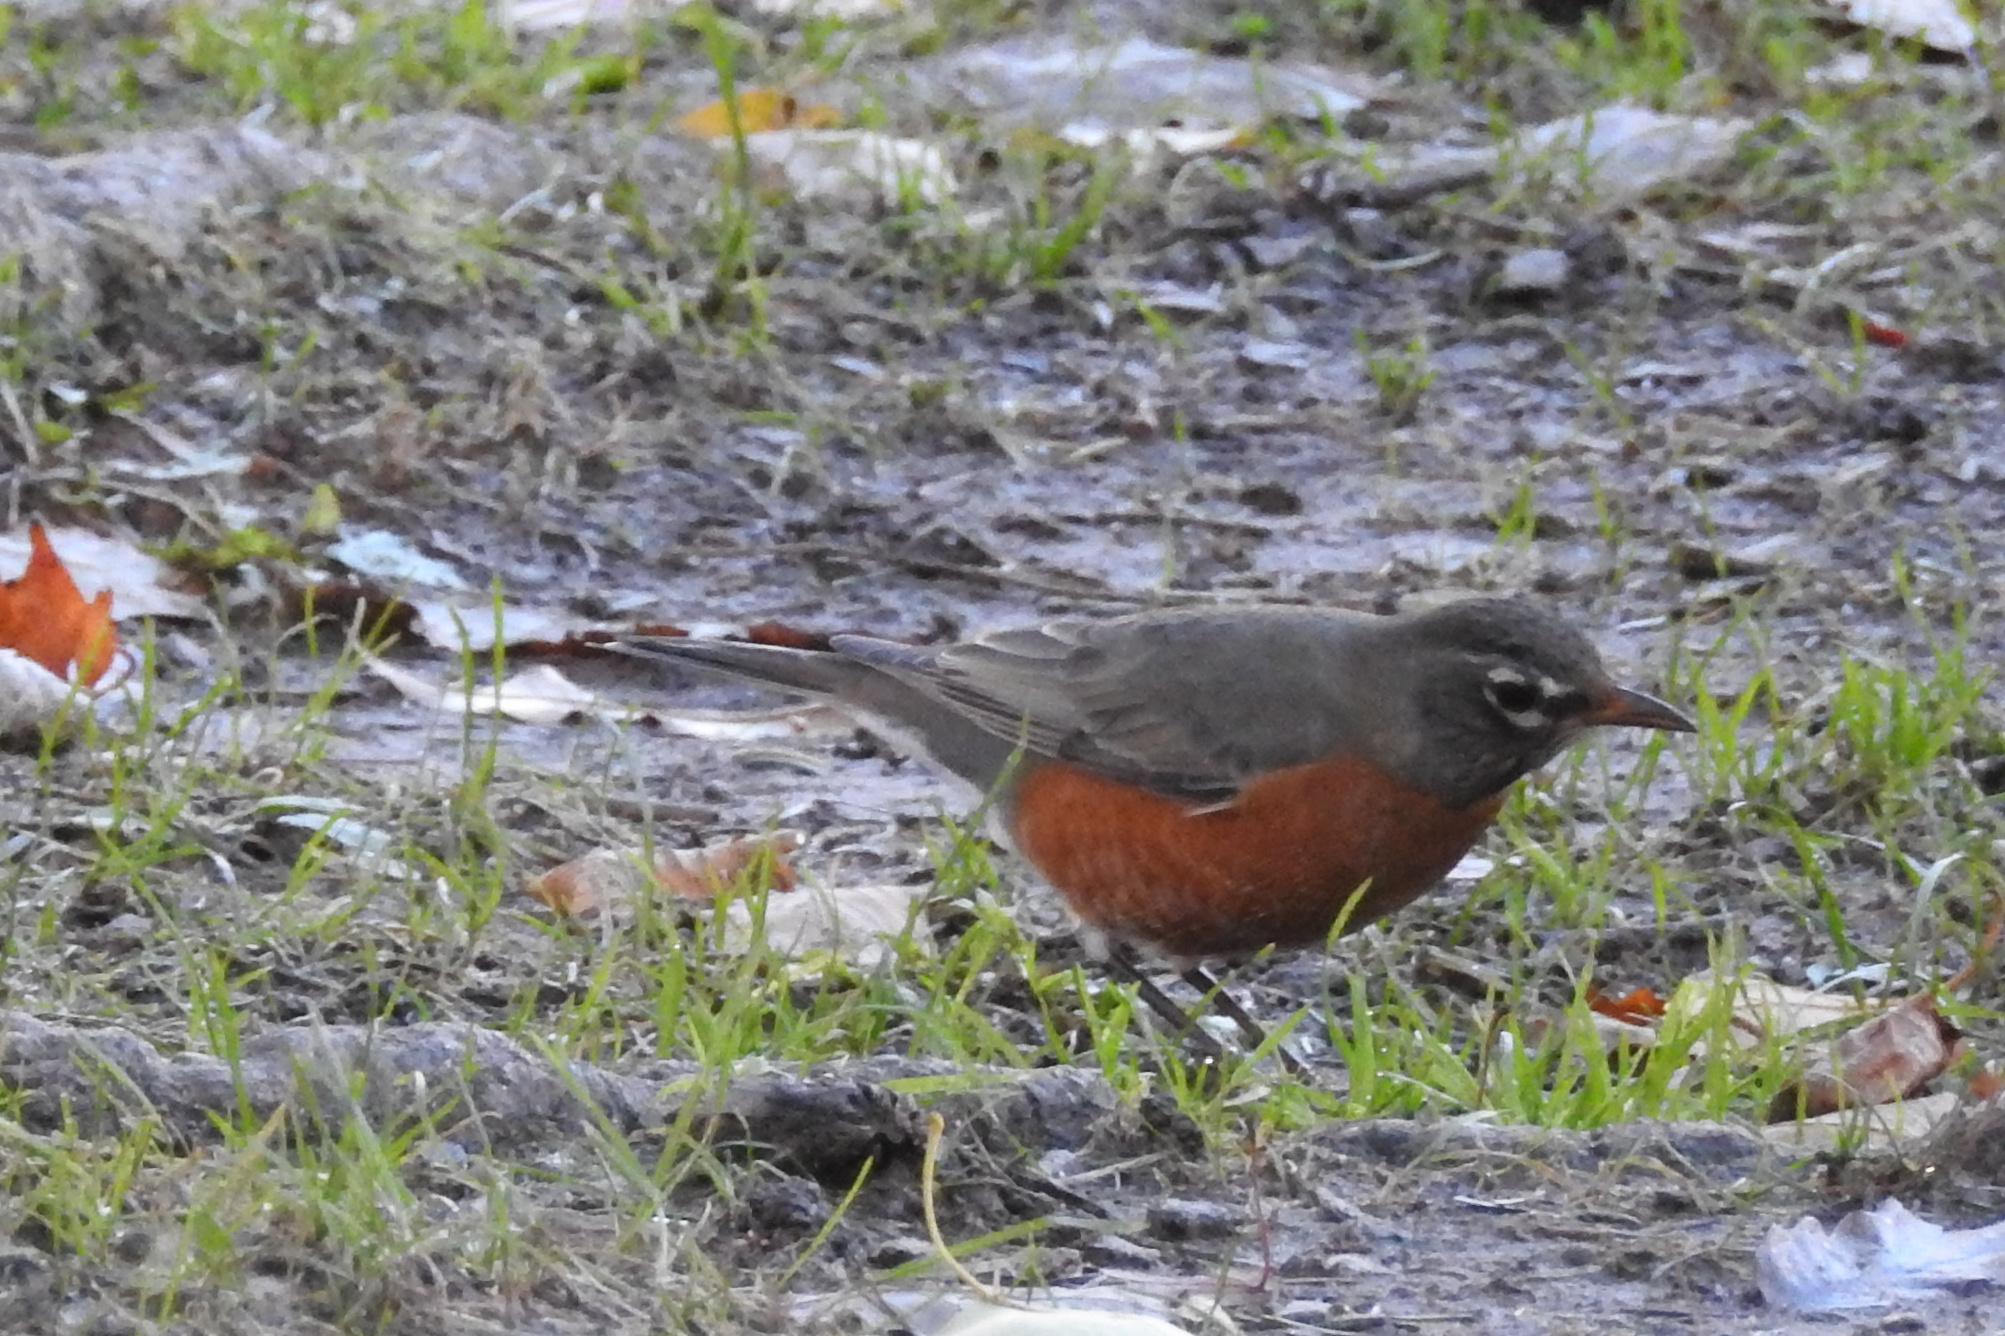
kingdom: Animalia
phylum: Chordata
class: Aves
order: Passeriformes
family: Turdidae
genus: Turdus
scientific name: Turdus migratorius
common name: American robin
